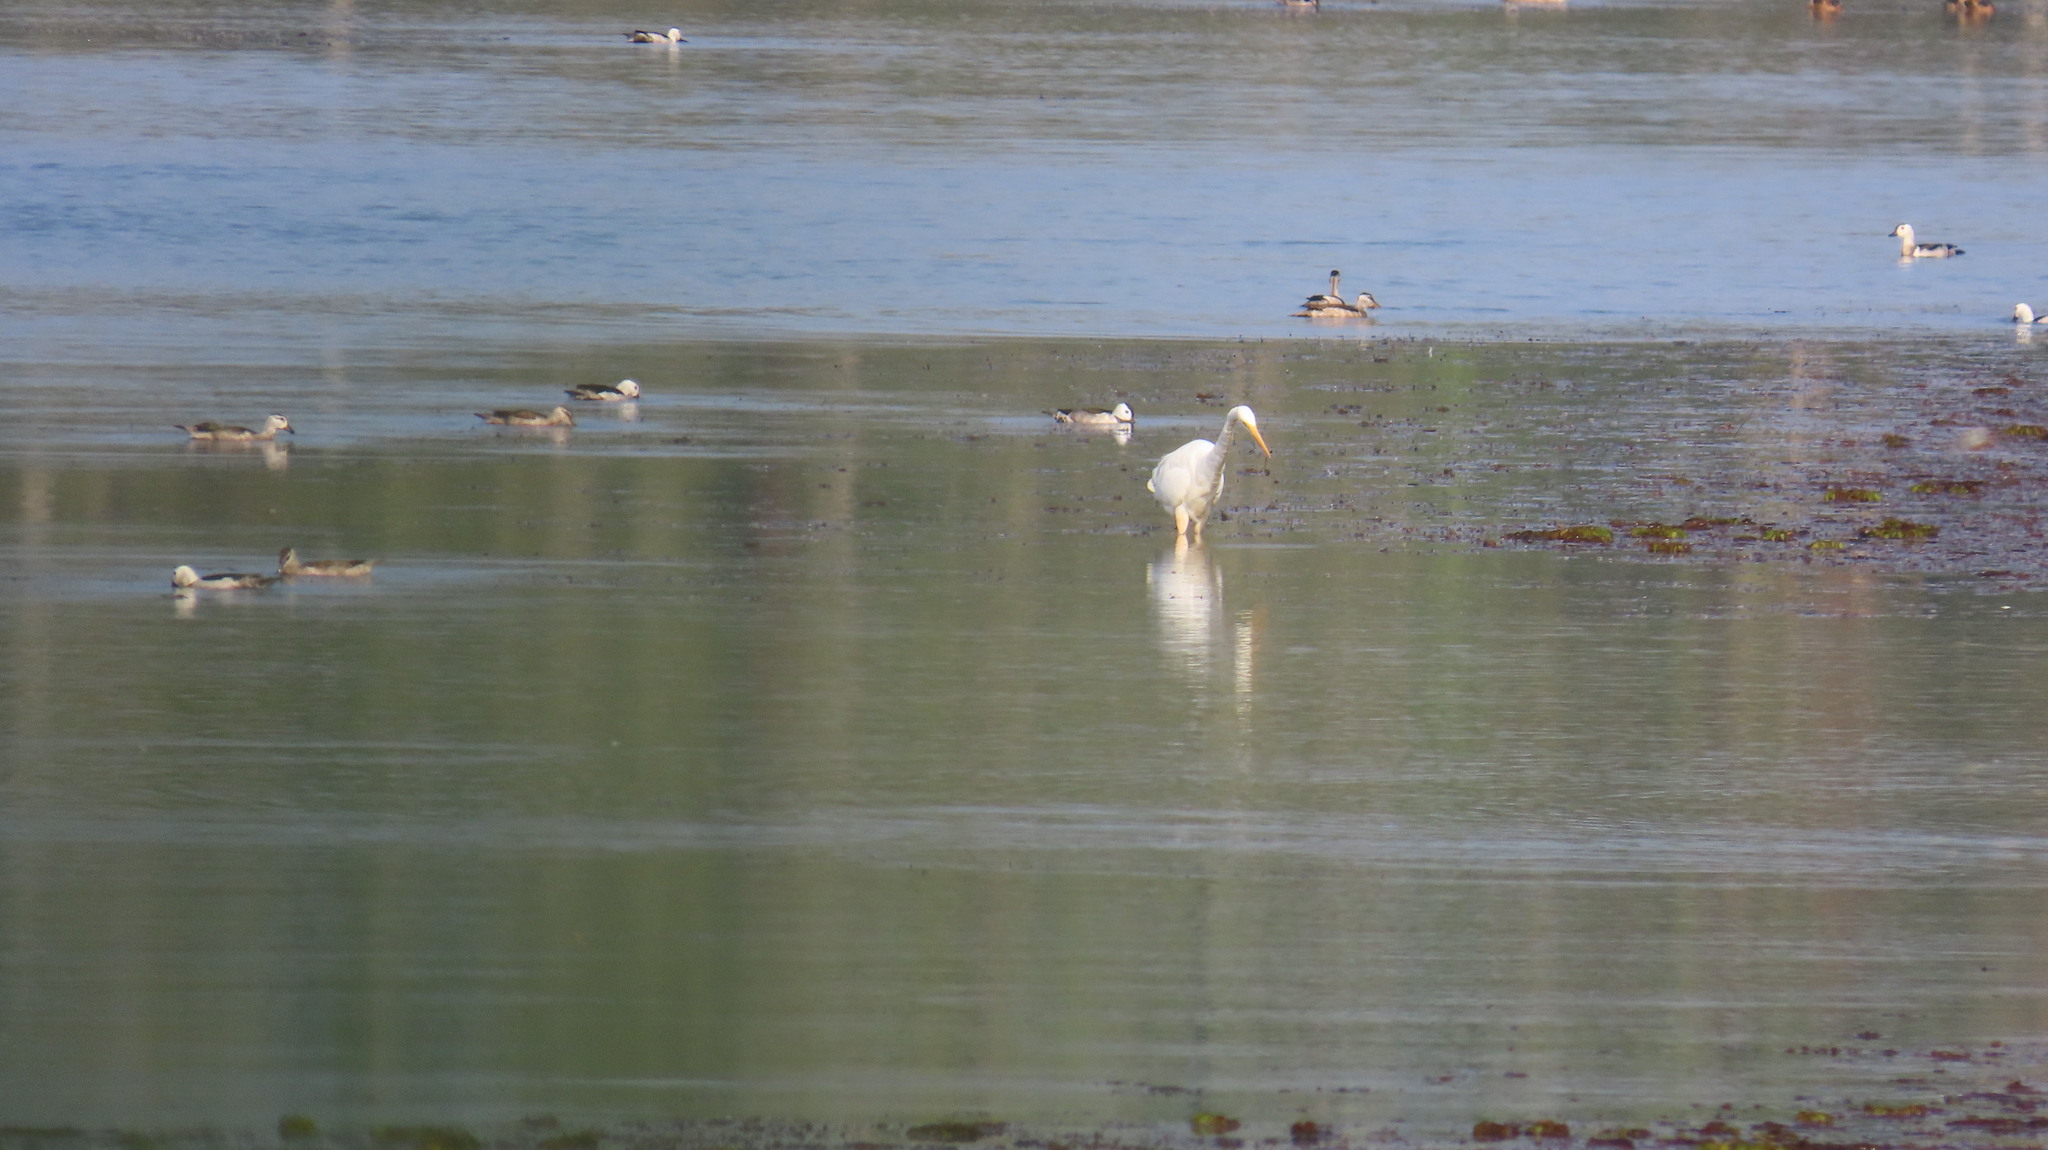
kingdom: Animalia
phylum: Chordata
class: Aves
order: Anseriformes
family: Anatidae
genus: Nettapus
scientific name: Nettapus coromandelianus
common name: Cotton pygmy-goose
